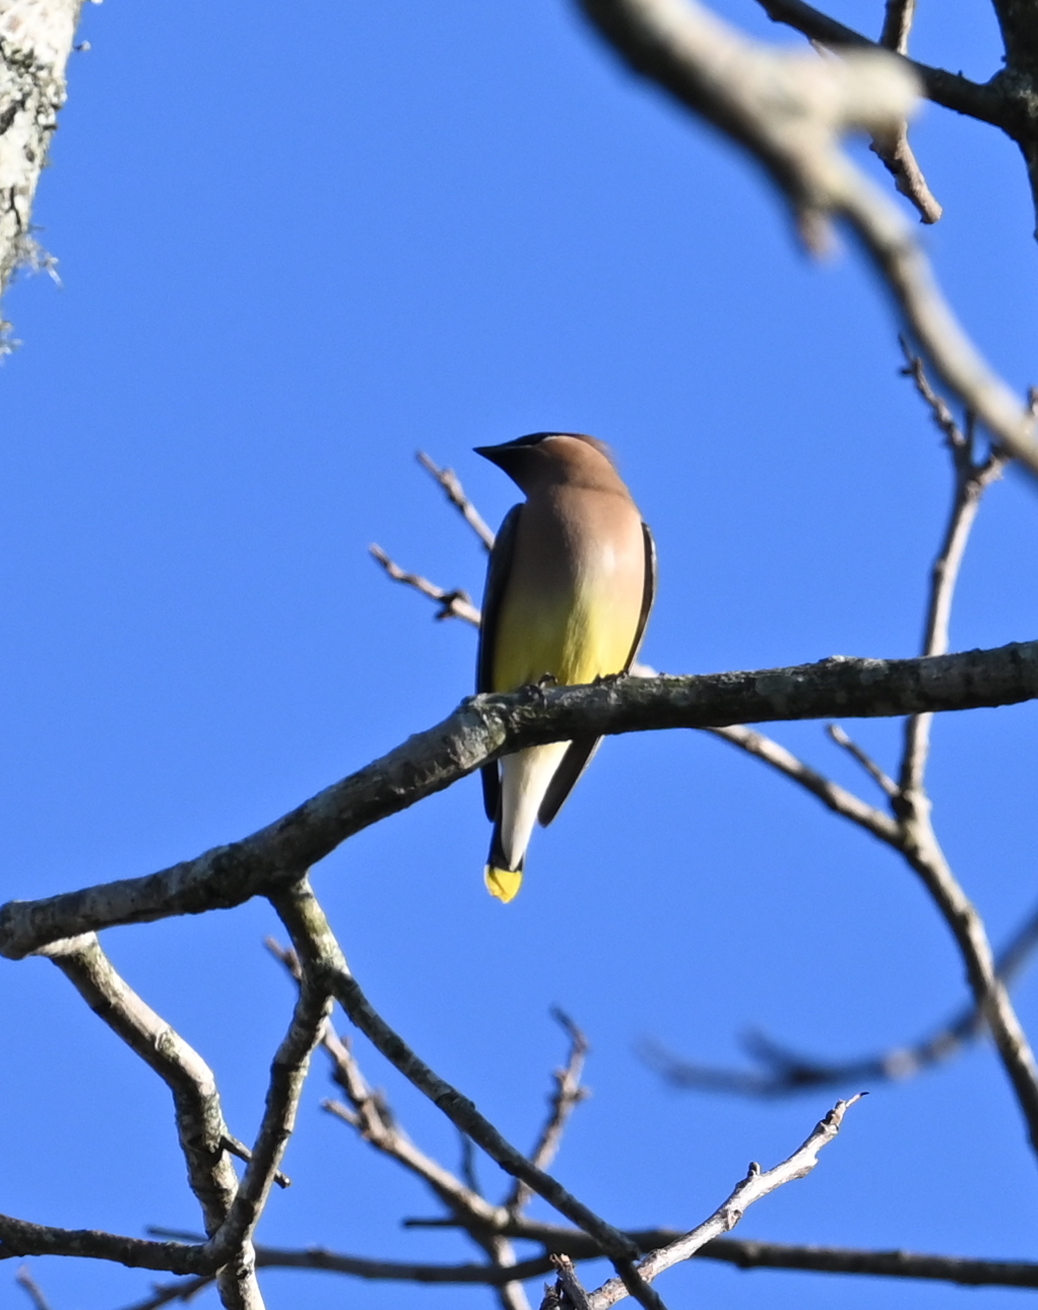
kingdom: Animalia
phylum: Chordata
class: Aves
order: Passeriformes
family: Bombycillidae
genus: Bombycilla
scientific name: Bombycilla cedrorum
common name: Cedar waxwing
